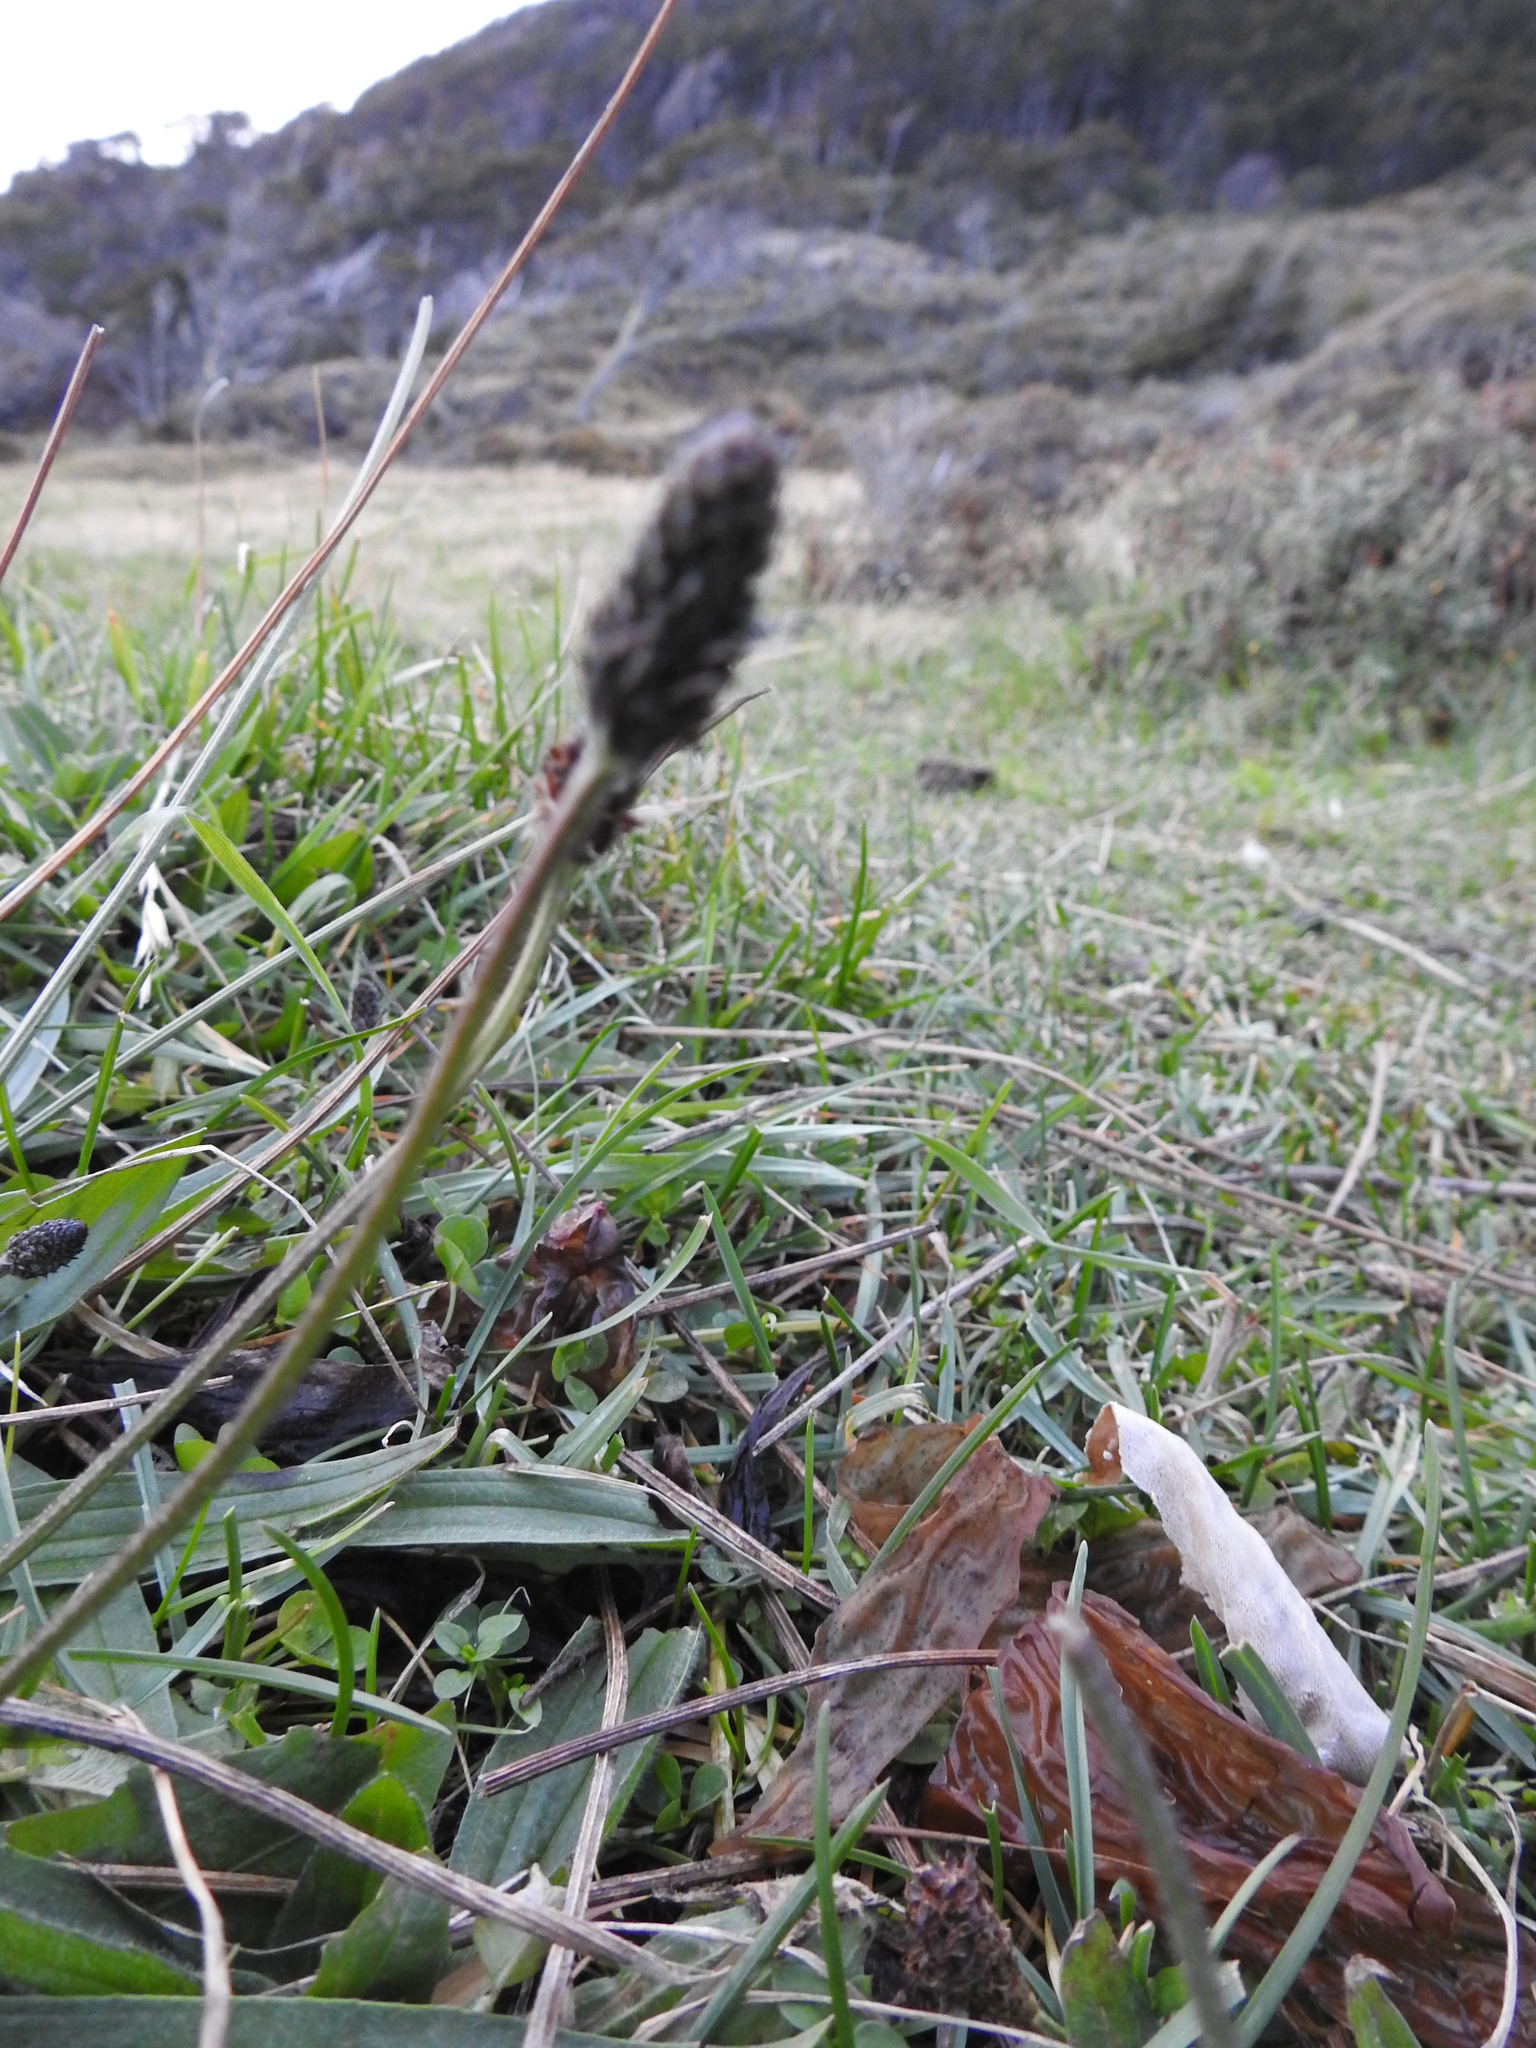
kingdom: Plantae
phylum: Tracheophyta
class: Magnoliopsida
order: Lamiales
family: Plantaginaceae
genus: Plantago
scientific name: Plantago lanceolata
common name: Ribwort plantain
